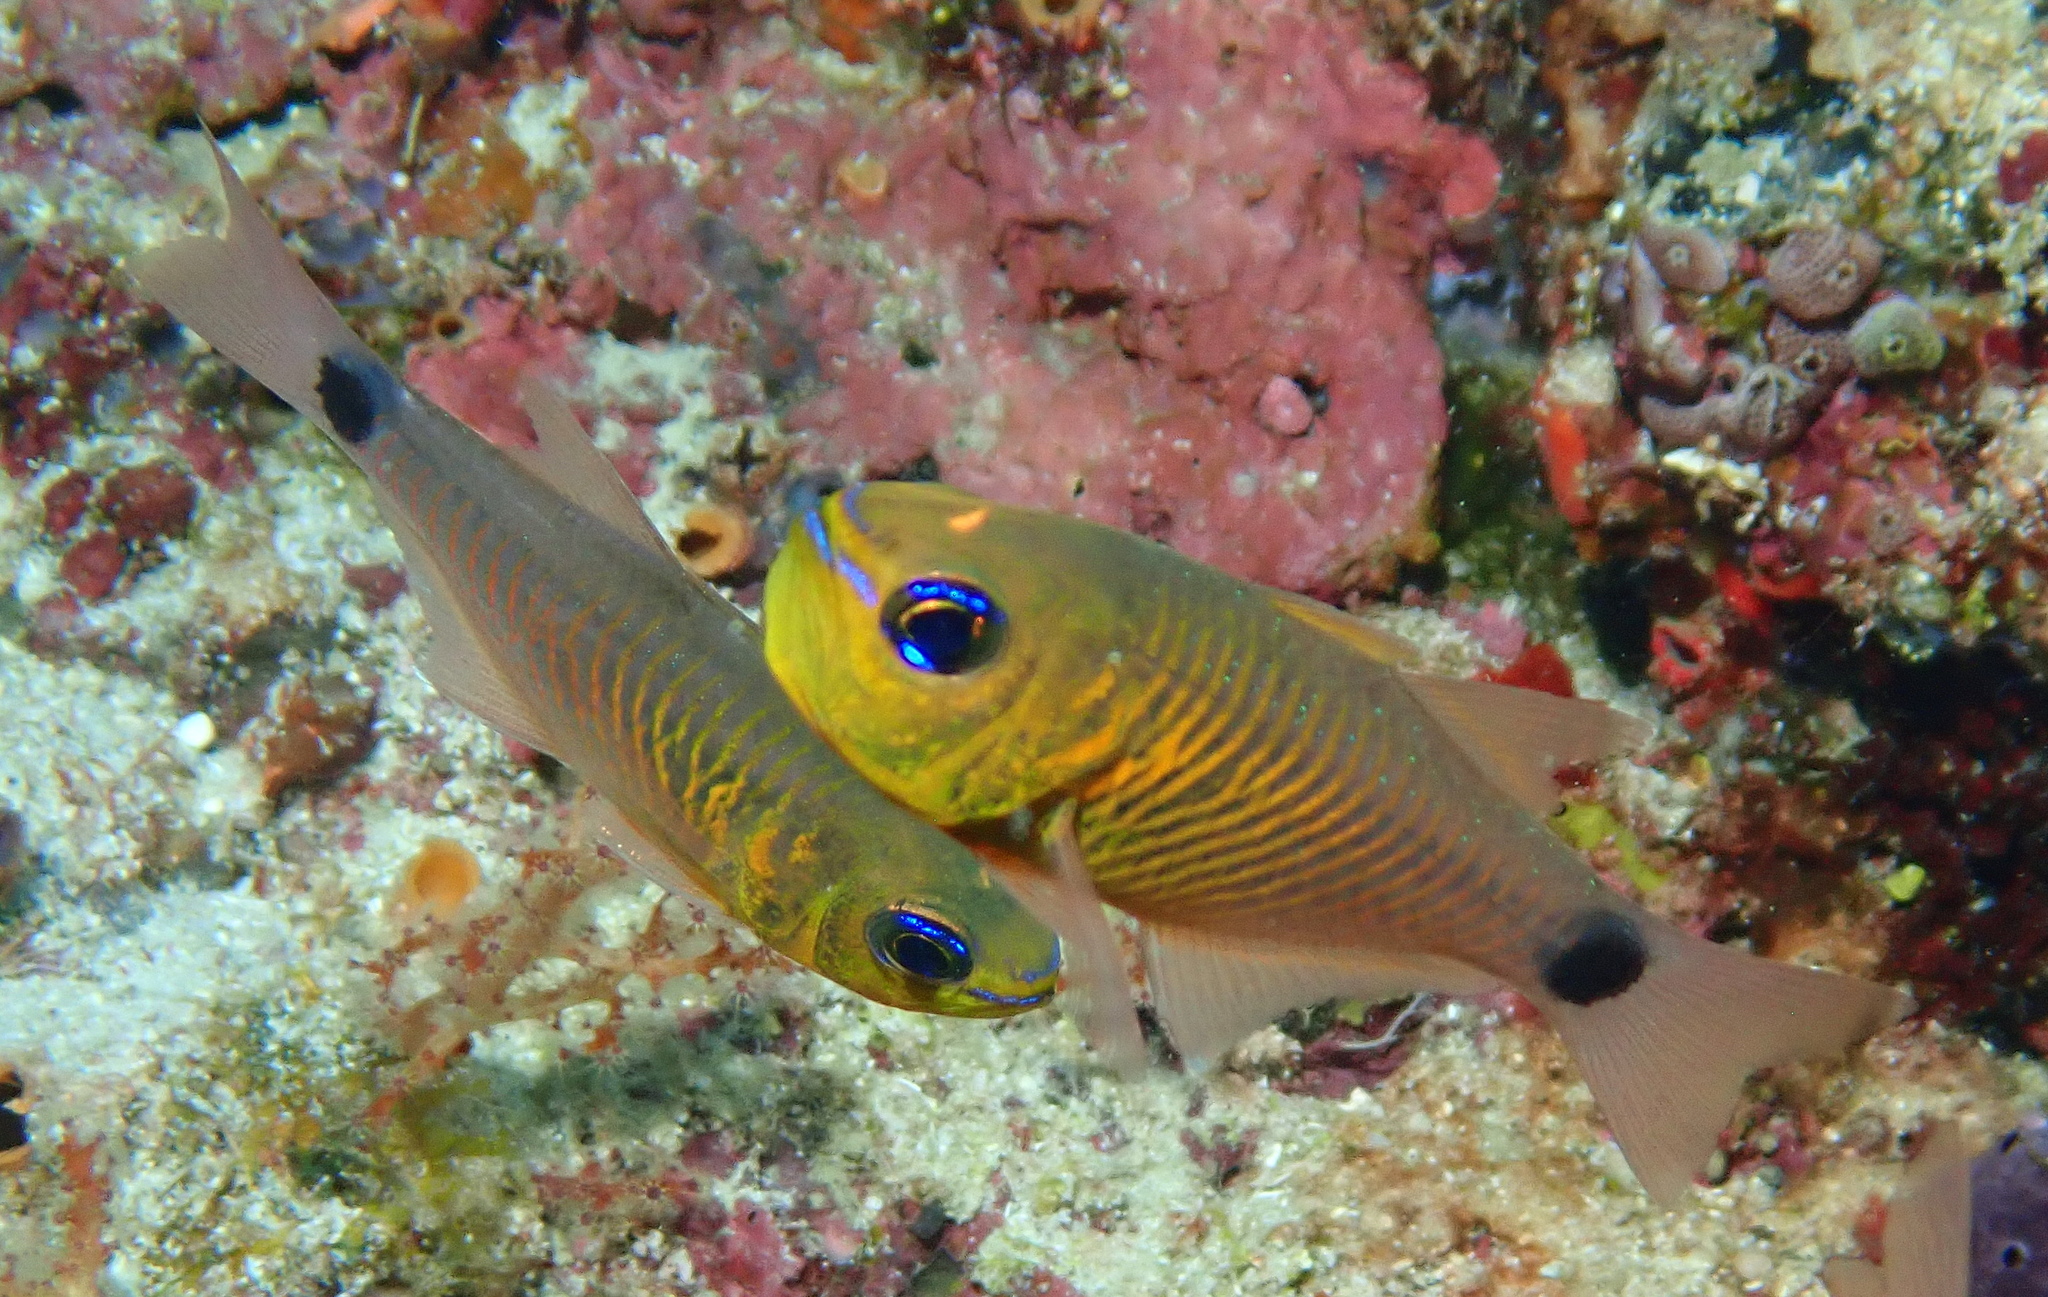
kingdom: Animalia
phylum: Chordata
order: Perciformes
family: Apogonidae
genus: Taeniamia
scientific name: Taeniamia fucata
